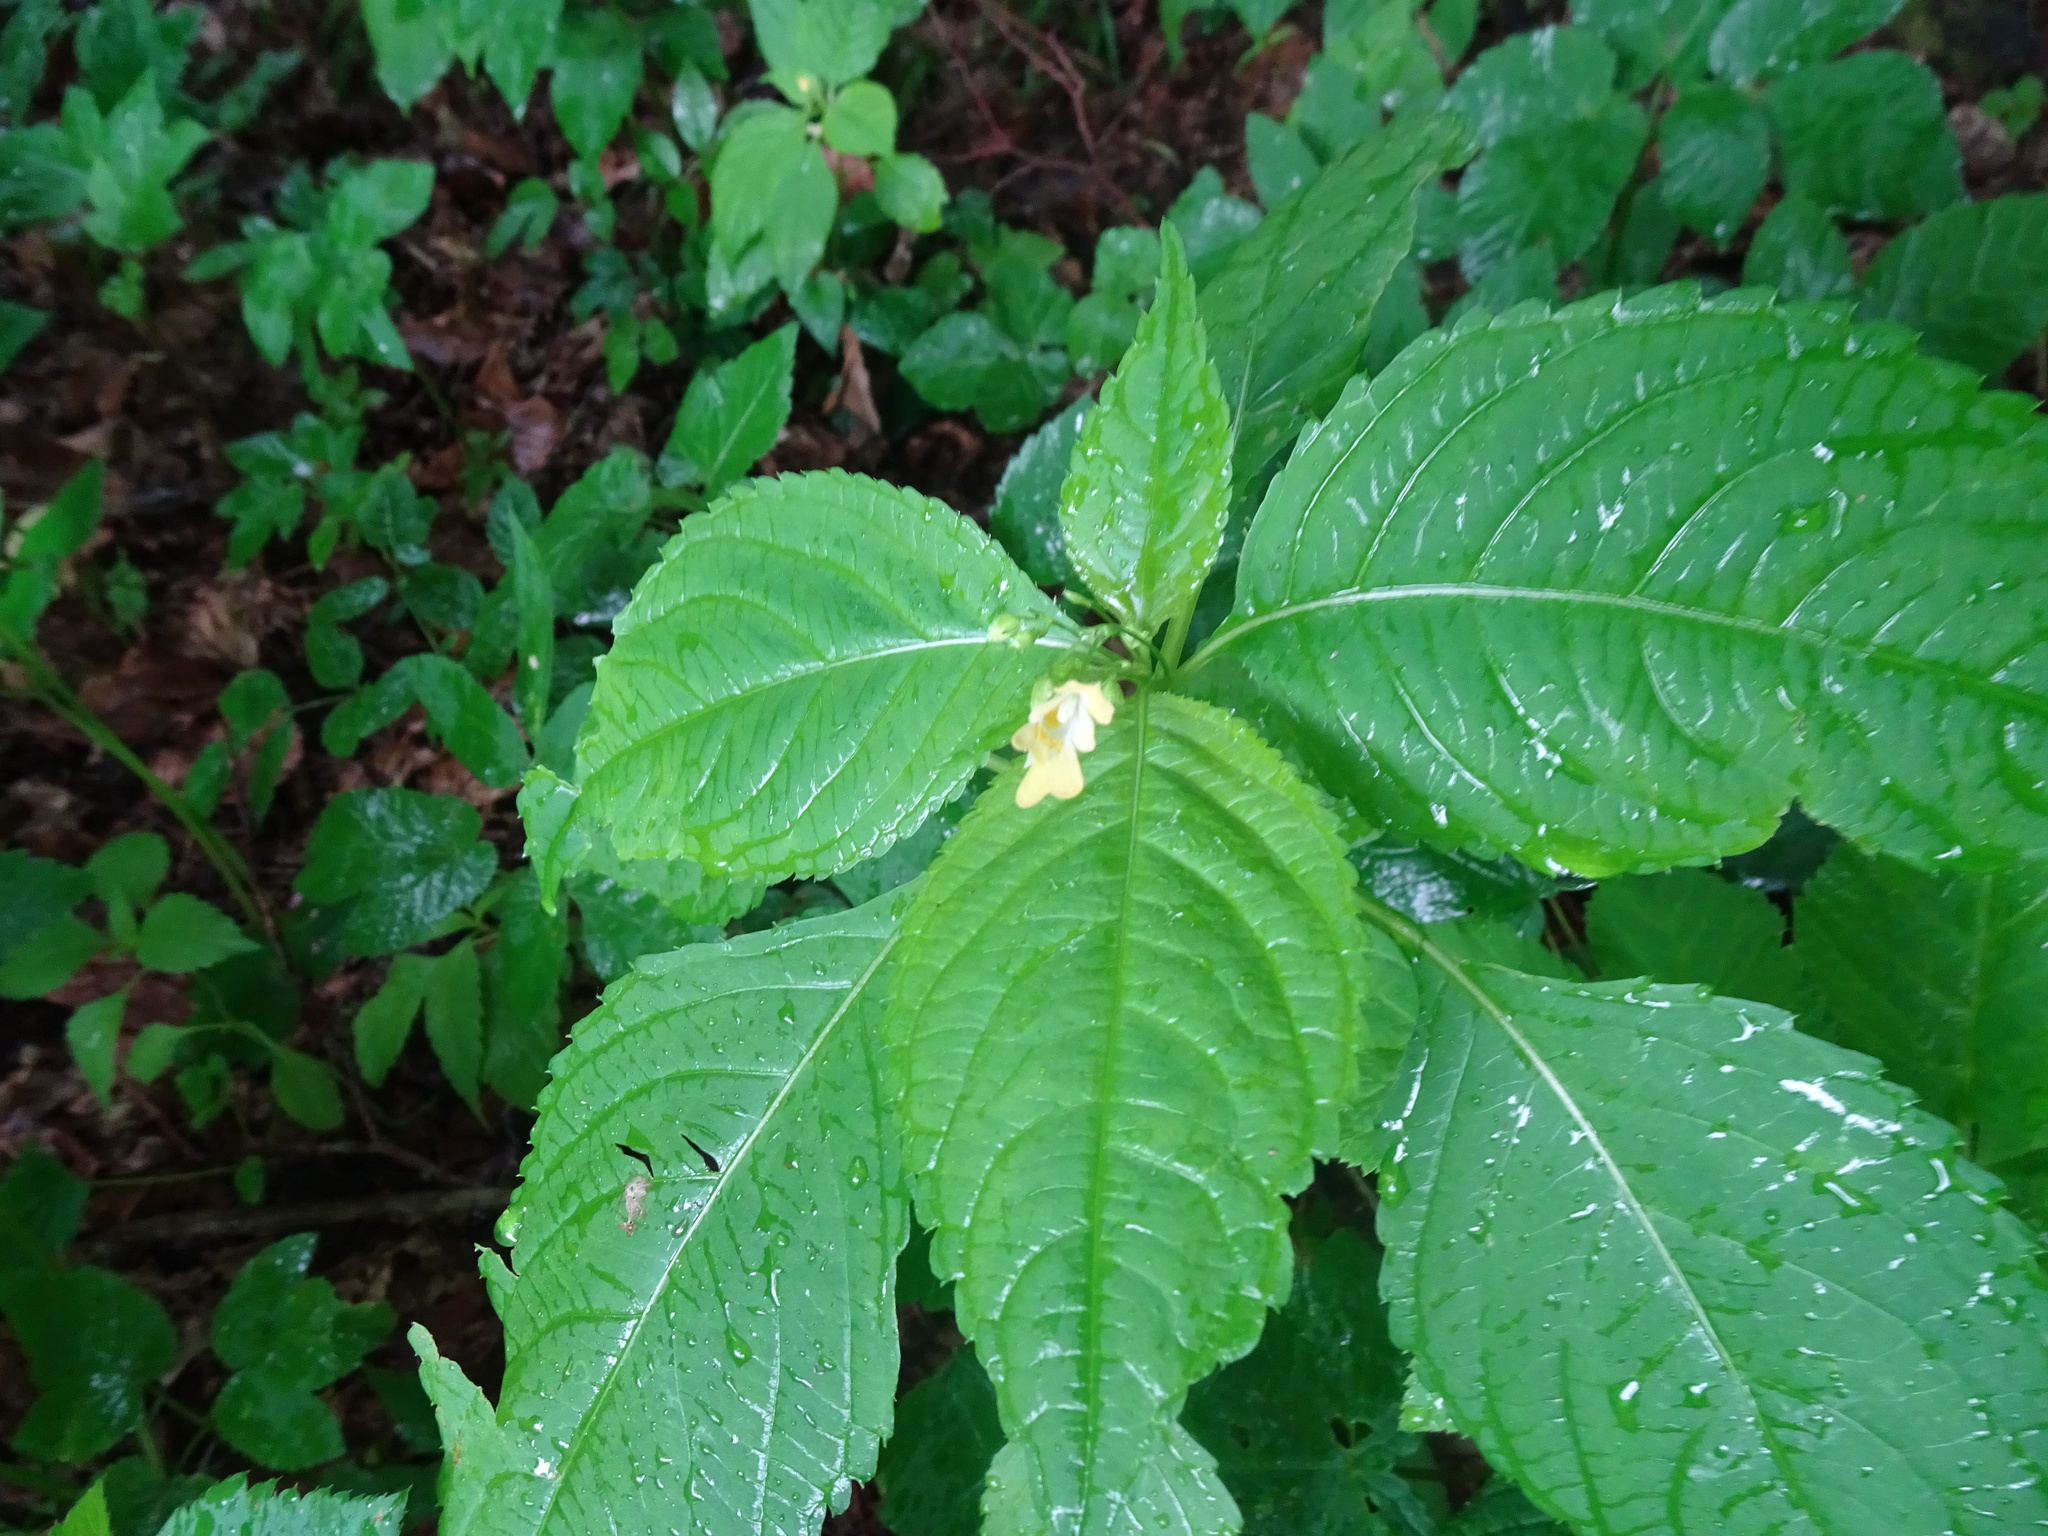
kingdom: Plantae
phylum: Tracheophyta
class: Magnoliopsida
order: Ericales
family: Balsaminaceae
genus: Impatiens
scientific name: Impatiens parviflora
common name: Small balsam
